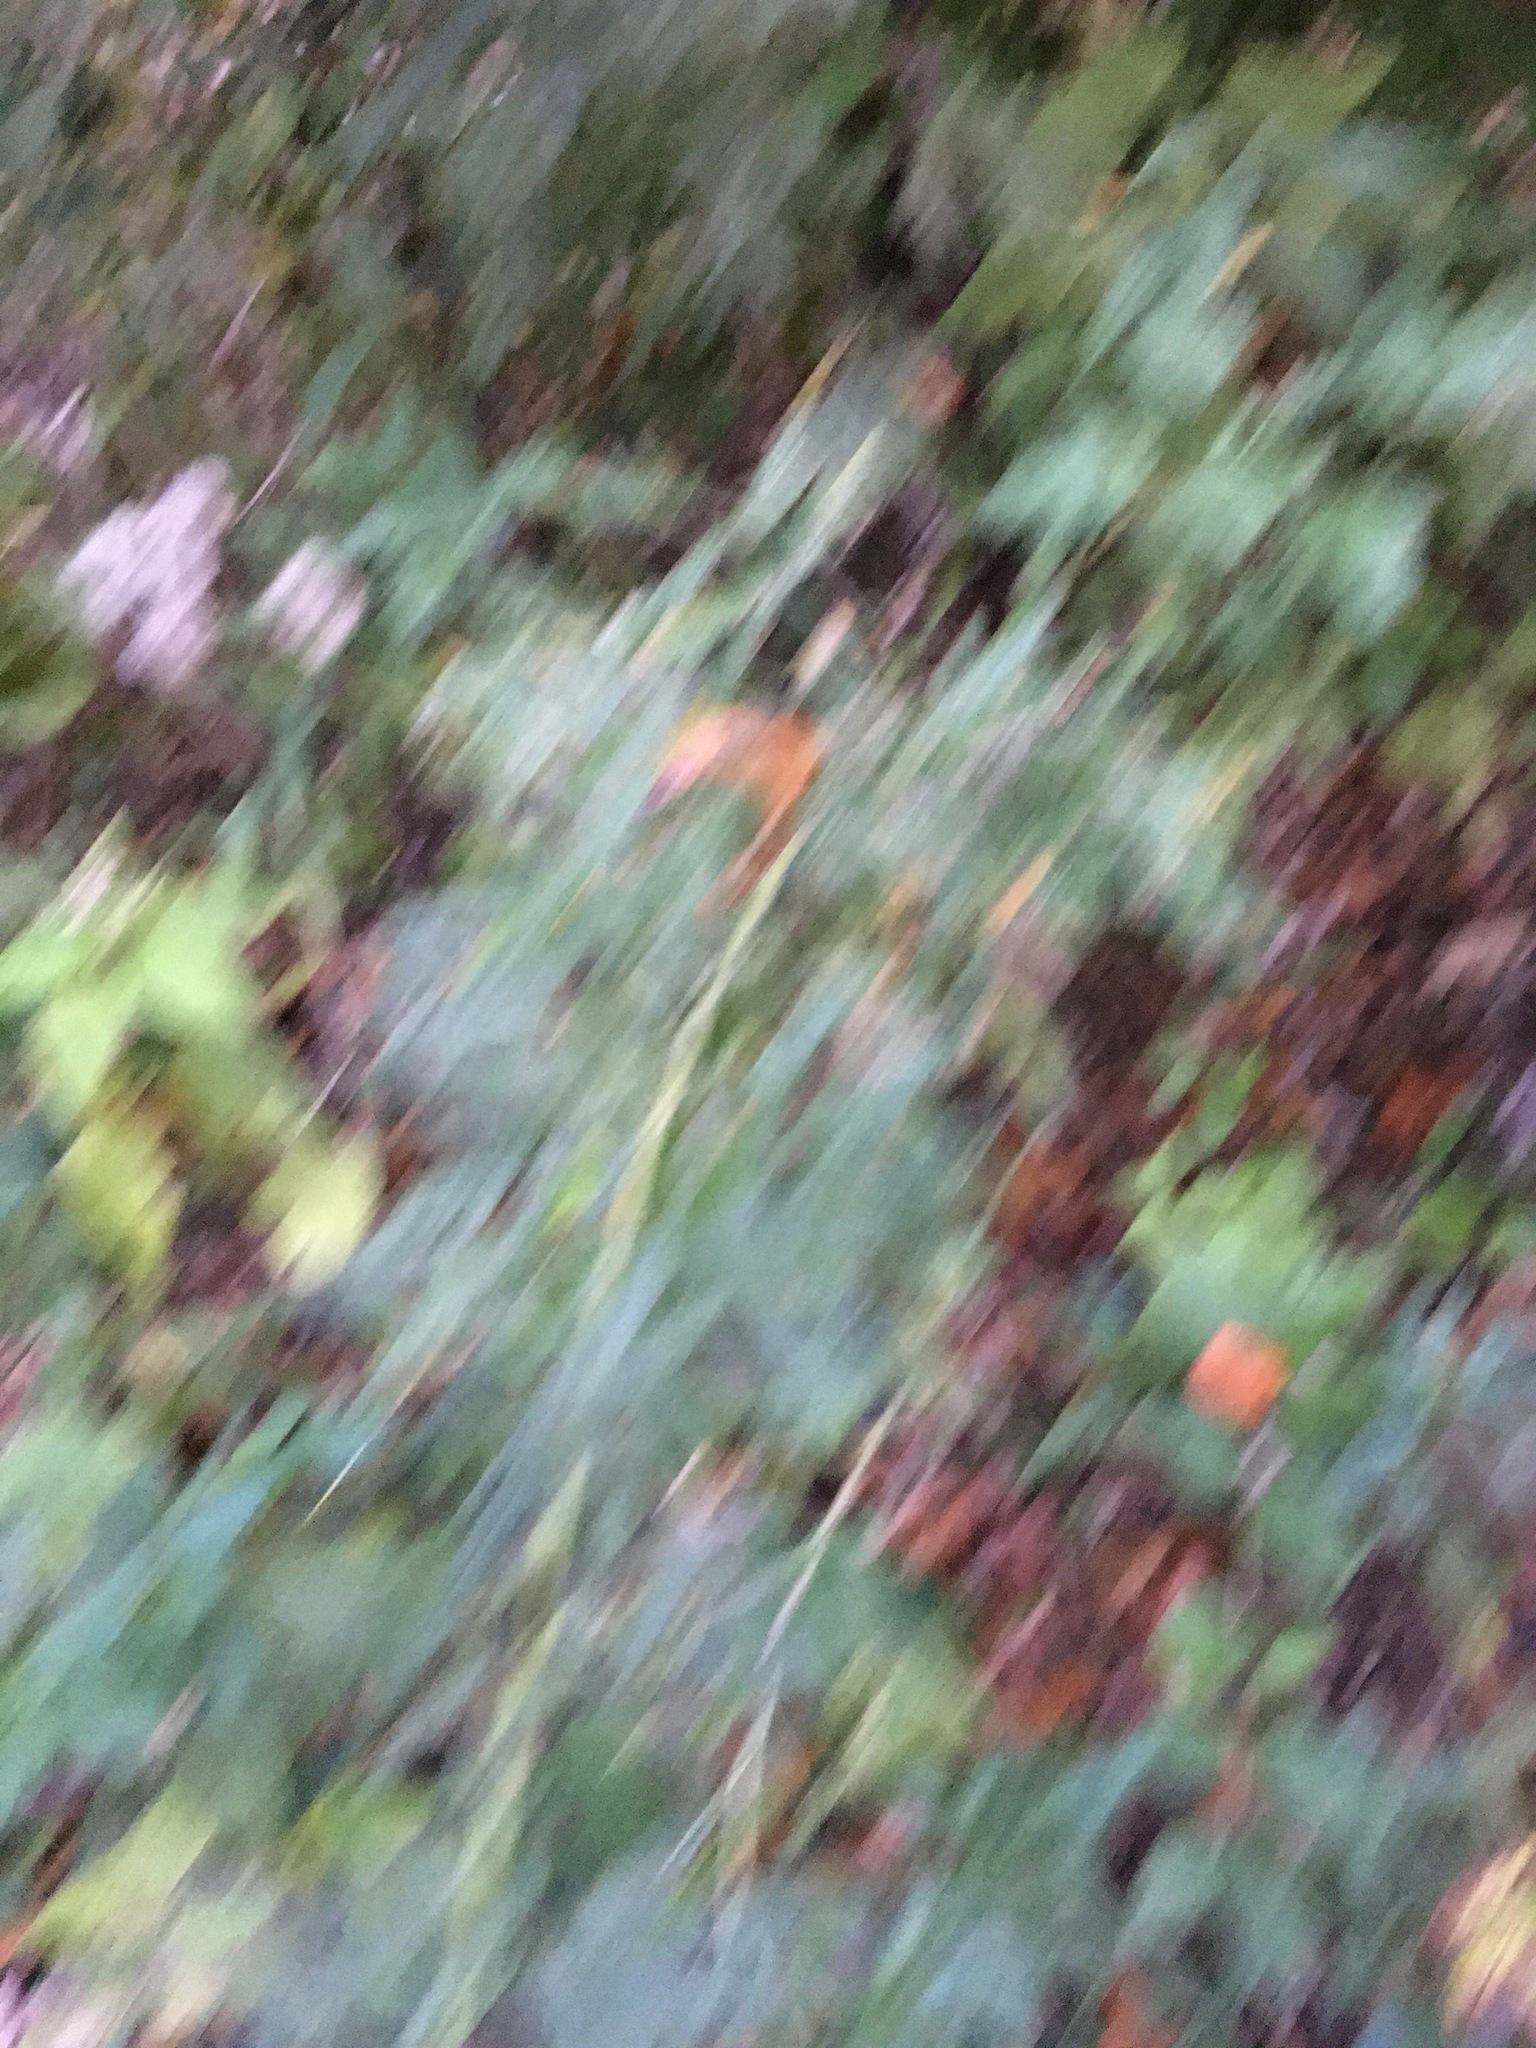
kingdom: Plantae
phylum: Tracheophyta
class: Magnoliopsida
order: Asterales
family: Asteraceae
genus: Artemisia
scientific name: Artemisia vulgaris
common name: Mugwort
